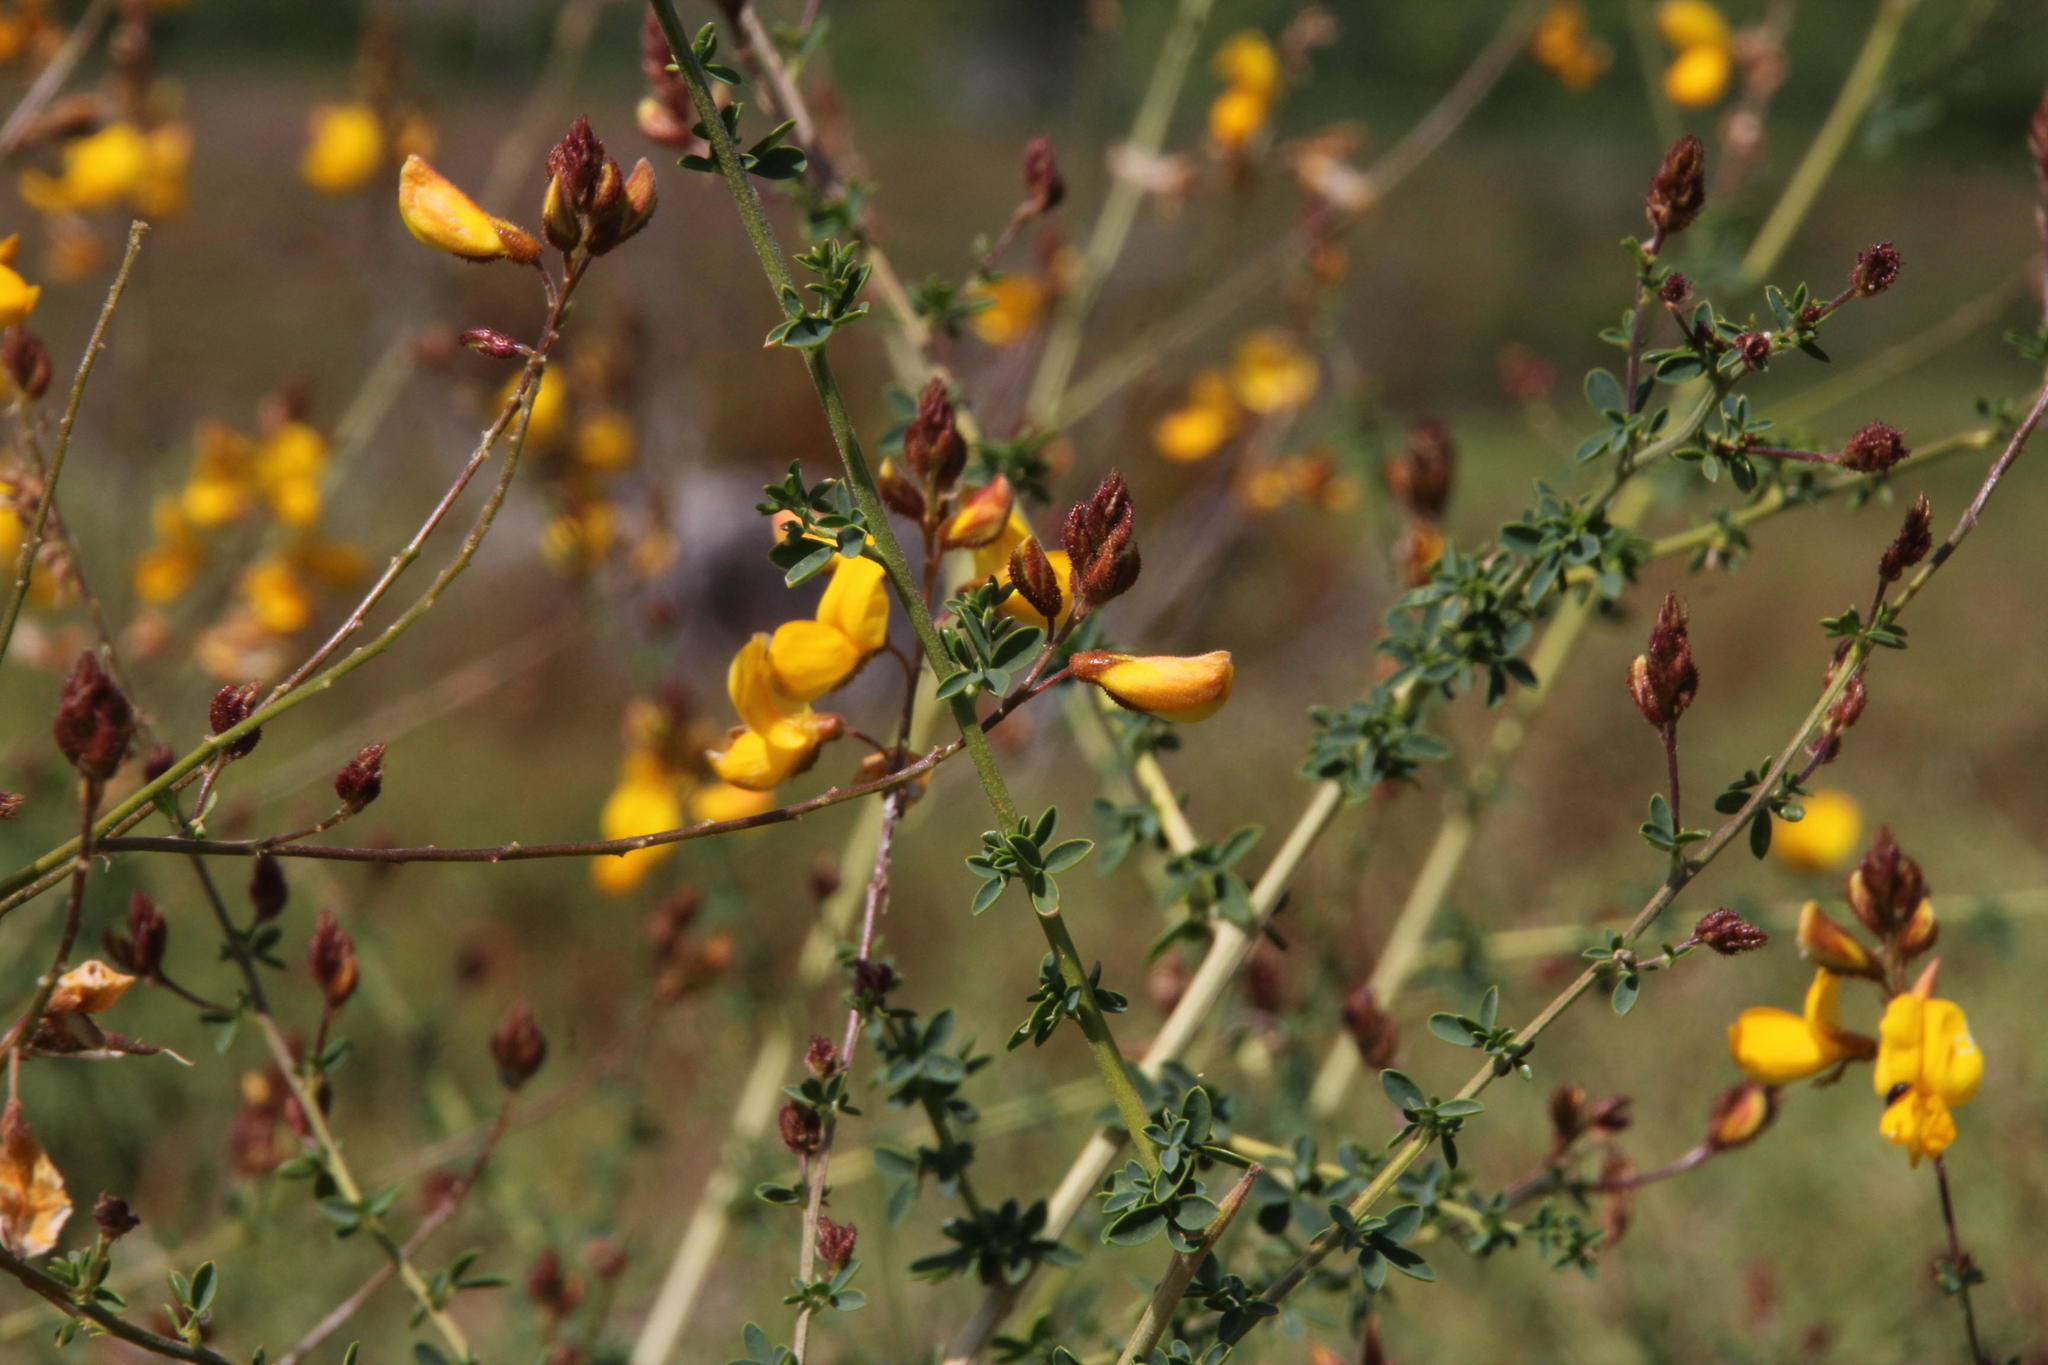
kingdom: Plantae
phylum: Tracheophyta
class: Magnoliopsida
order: Fabales
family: Fabaceae
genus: Adenocarpus
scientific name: Adenocarpus complicatus
